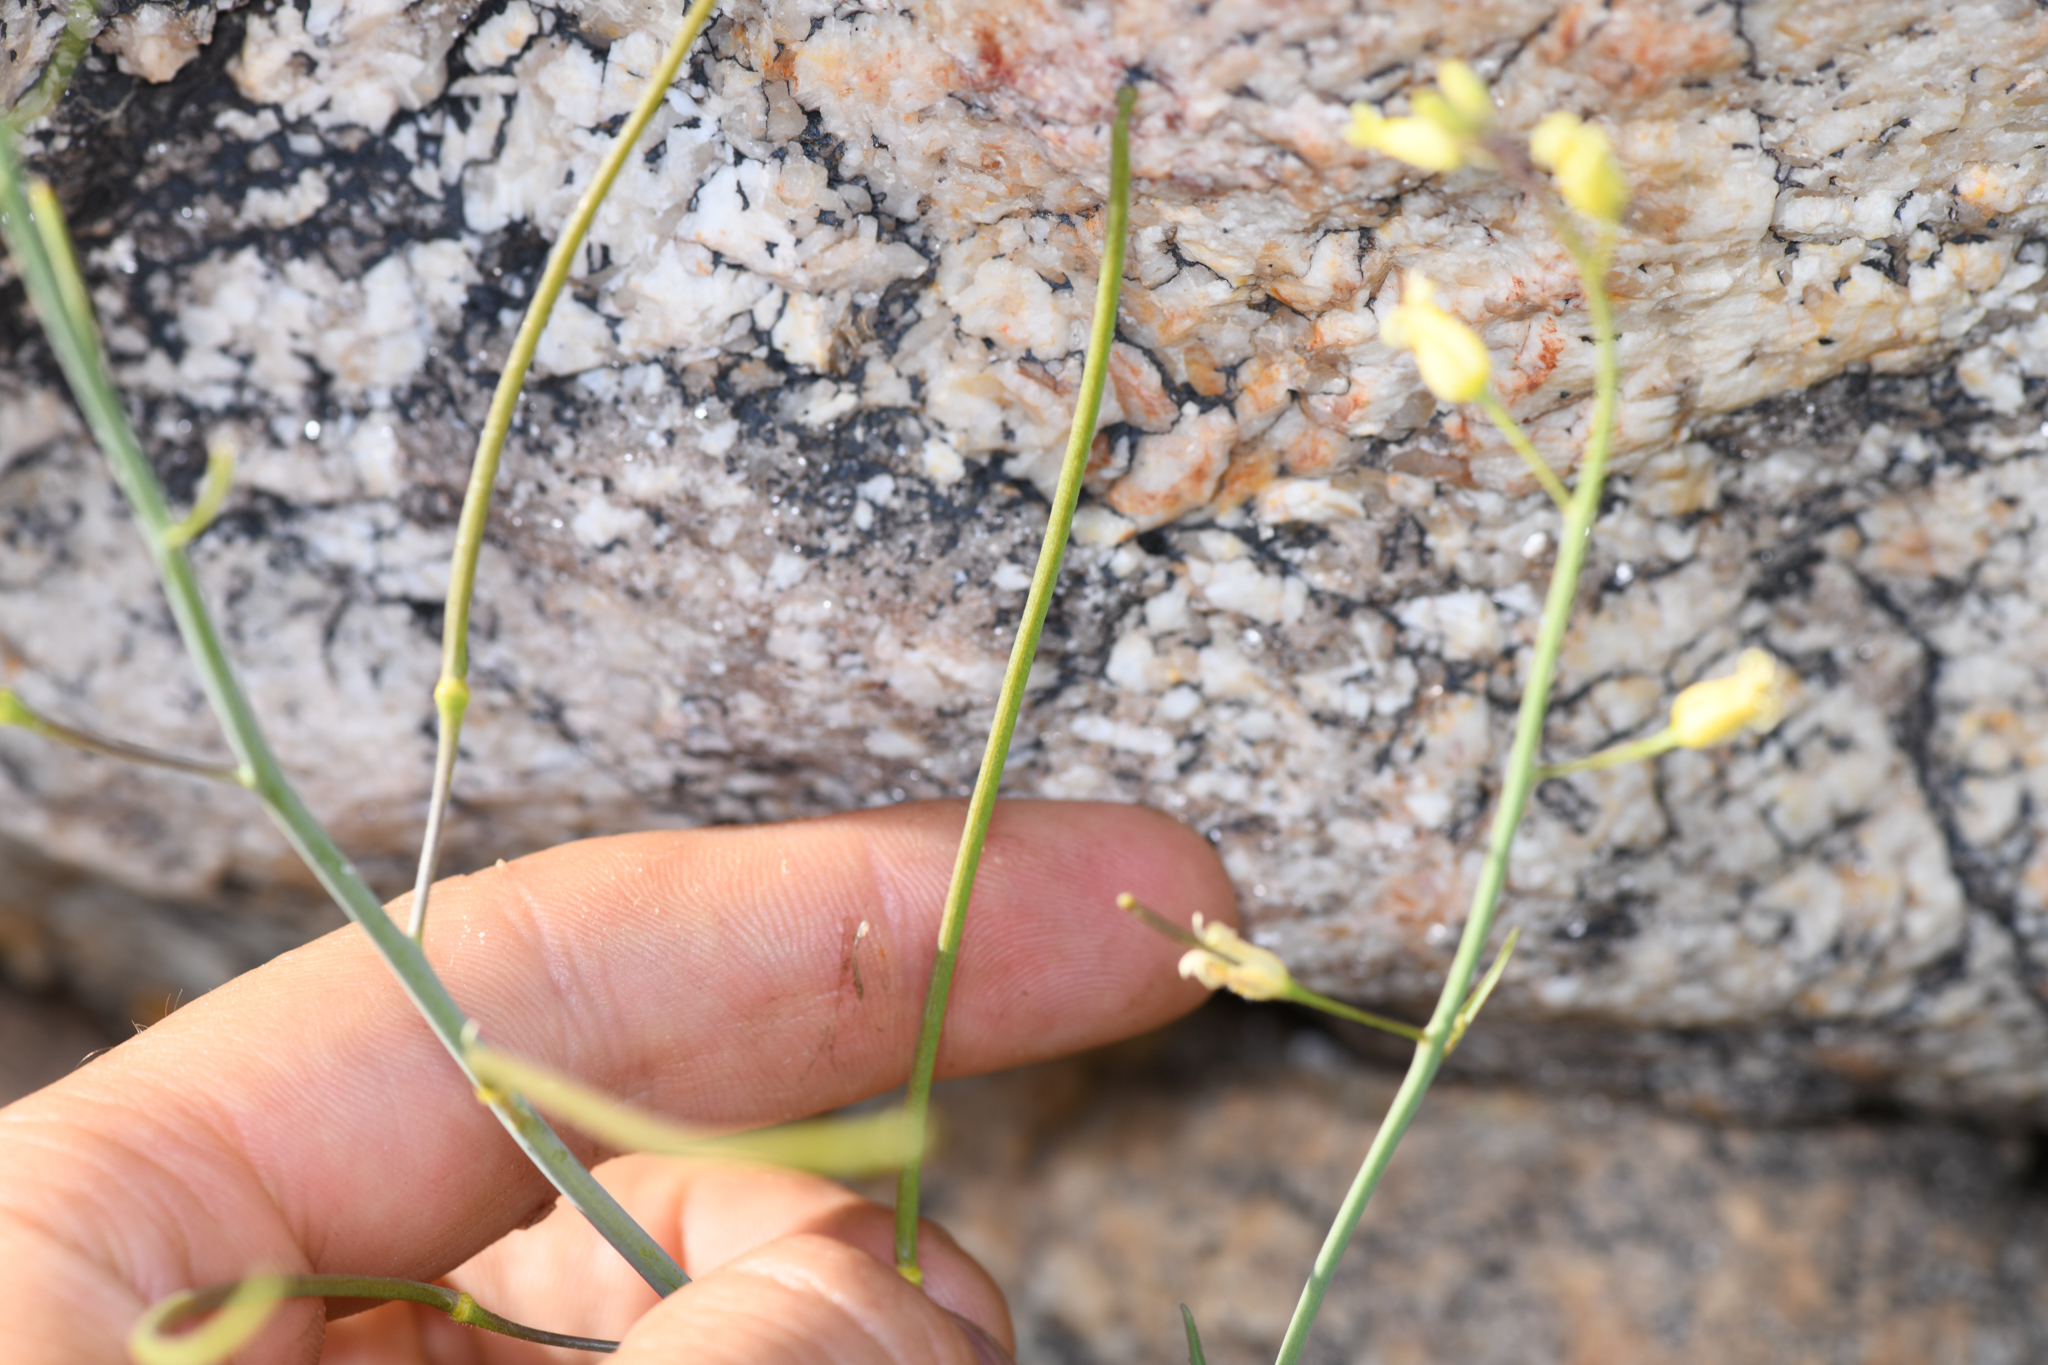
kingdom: Plantae
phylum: Tracheophyta
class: Magnoliopsida
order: Brassicales
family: Brassicaceae
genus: Streptanthus
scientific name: Streptanthus hallii
